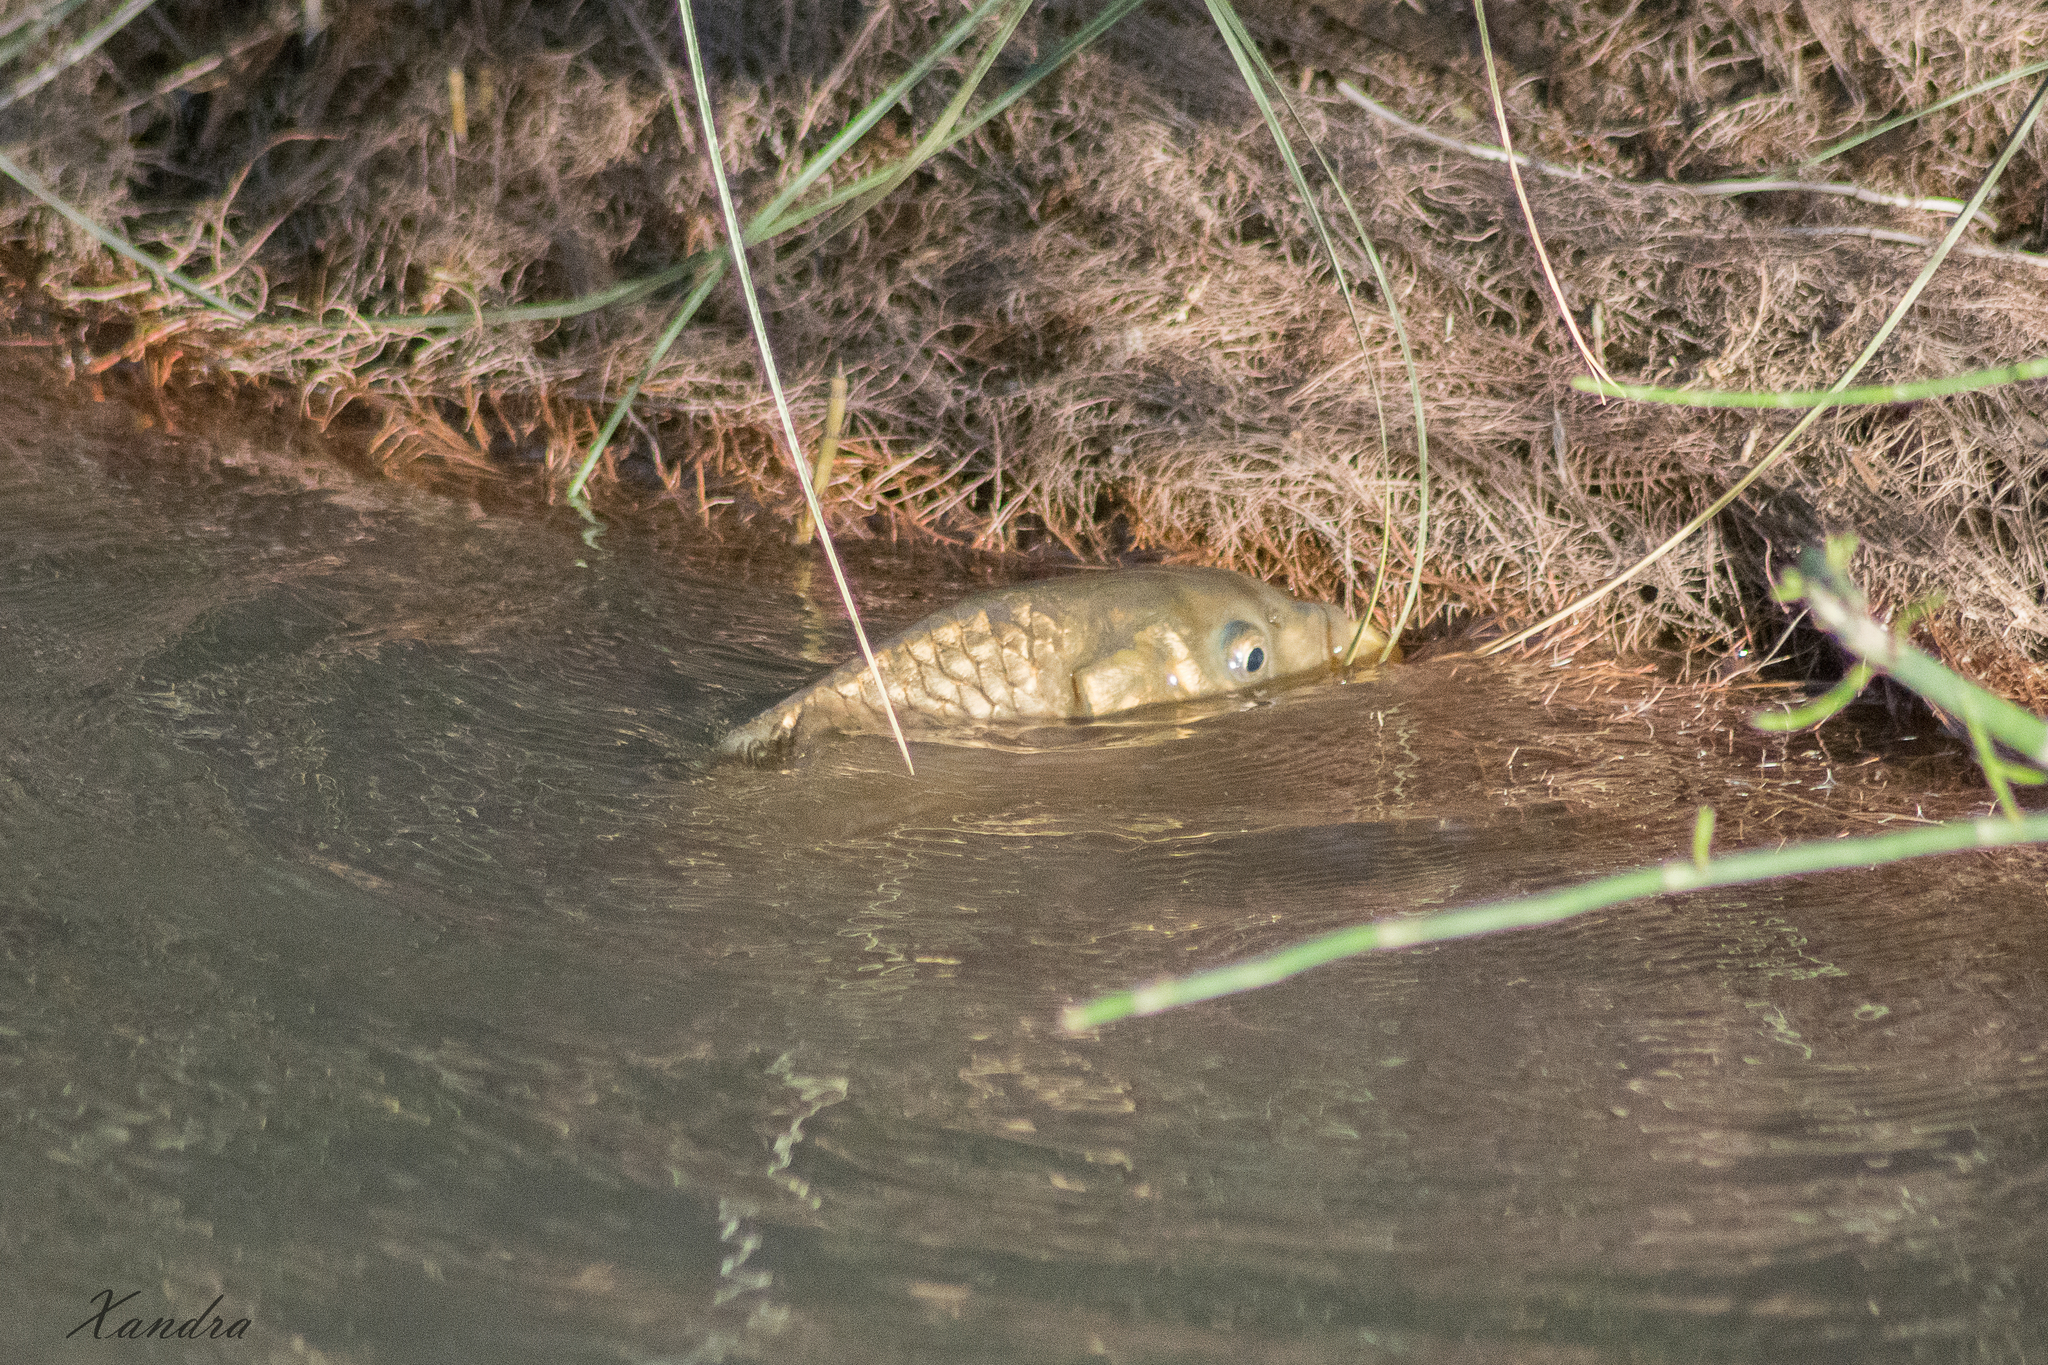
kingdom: Animalia
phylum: Chordata
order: Cypriniformes
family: Cyprinidae
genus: Cyprinus
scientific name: Cyprinus carpio
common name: Common carp
